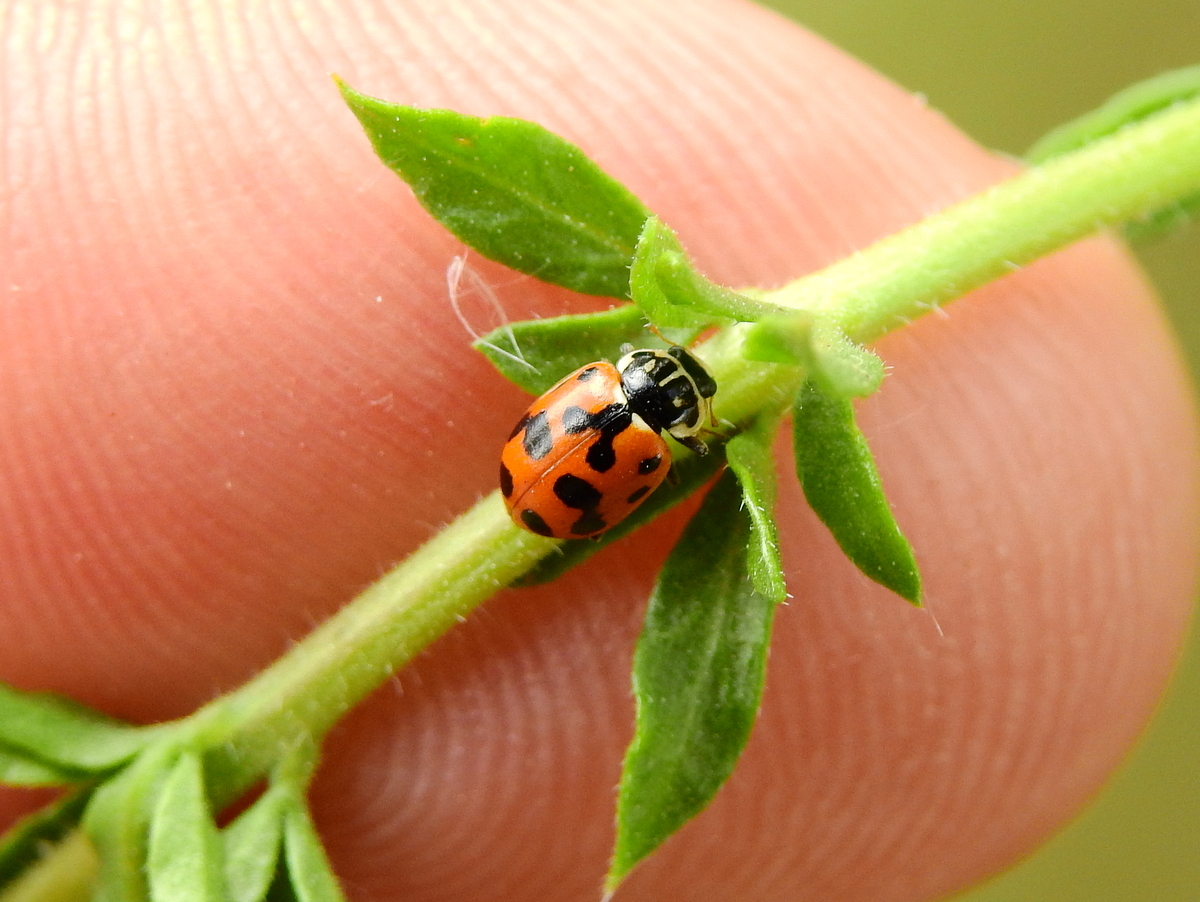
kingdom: Animalia
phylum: Arthropoda
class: Insecta
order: Coleoptera
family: Coccinellidae
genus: Hippodamia
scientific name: Hippodamia variegata
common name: Ladybird beetle
